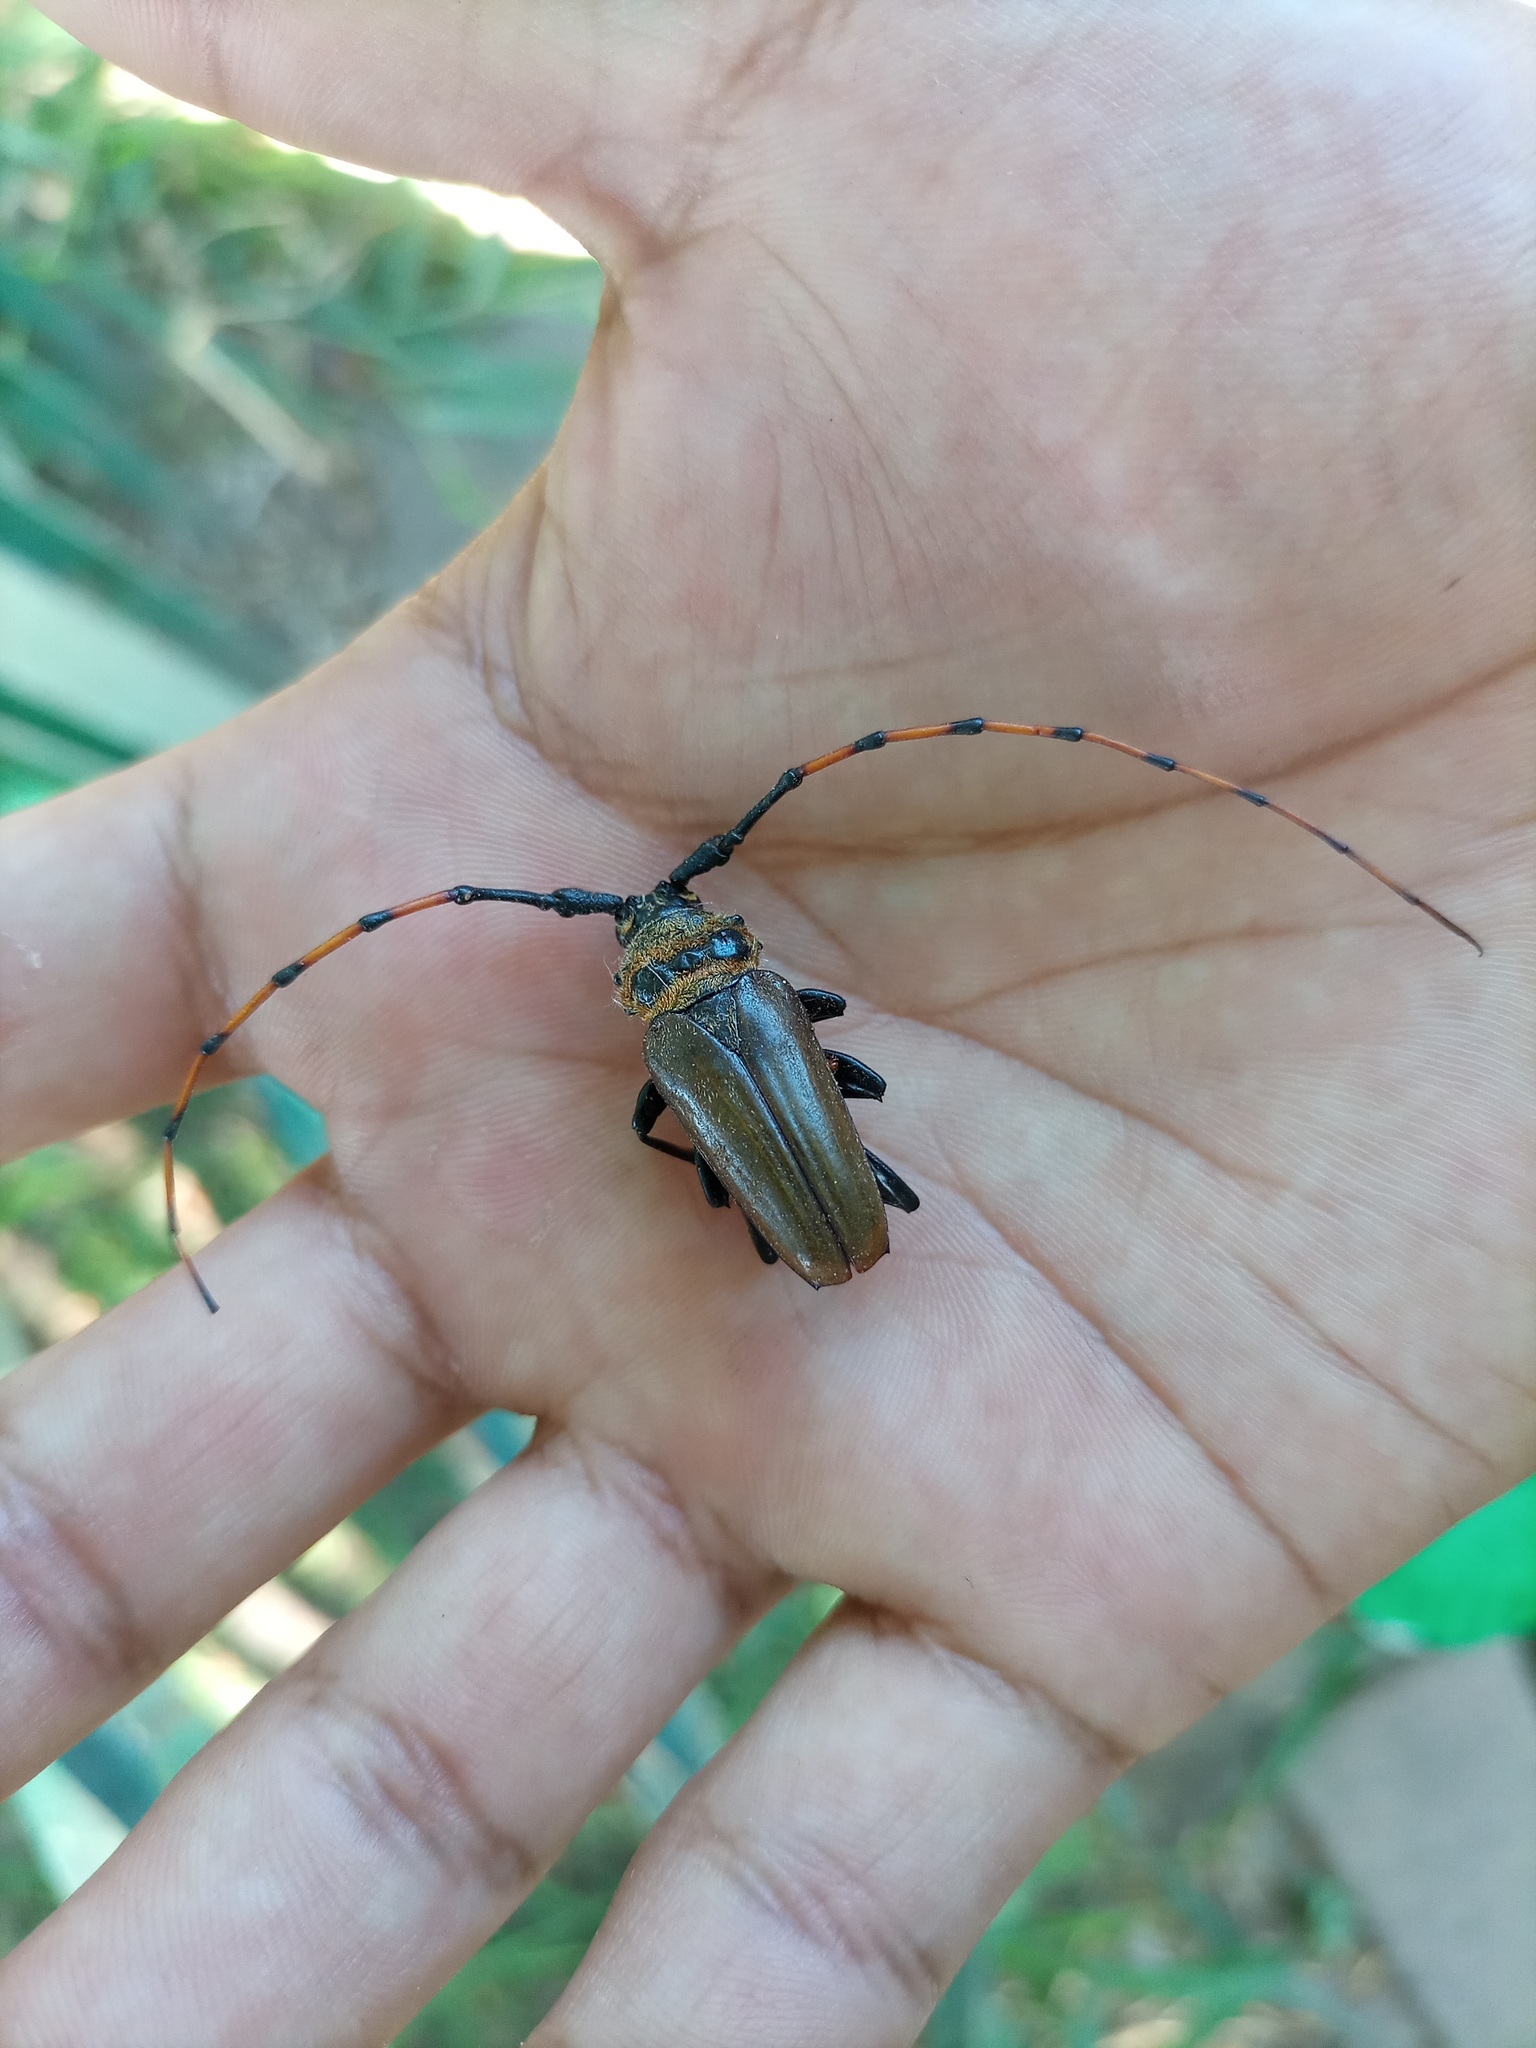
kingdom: Animalia
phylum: Arthropoda
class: Insecta
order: Coleoptera
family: Cerambycidae
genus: Retrachydes
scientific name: Retrachydes thoracicus
